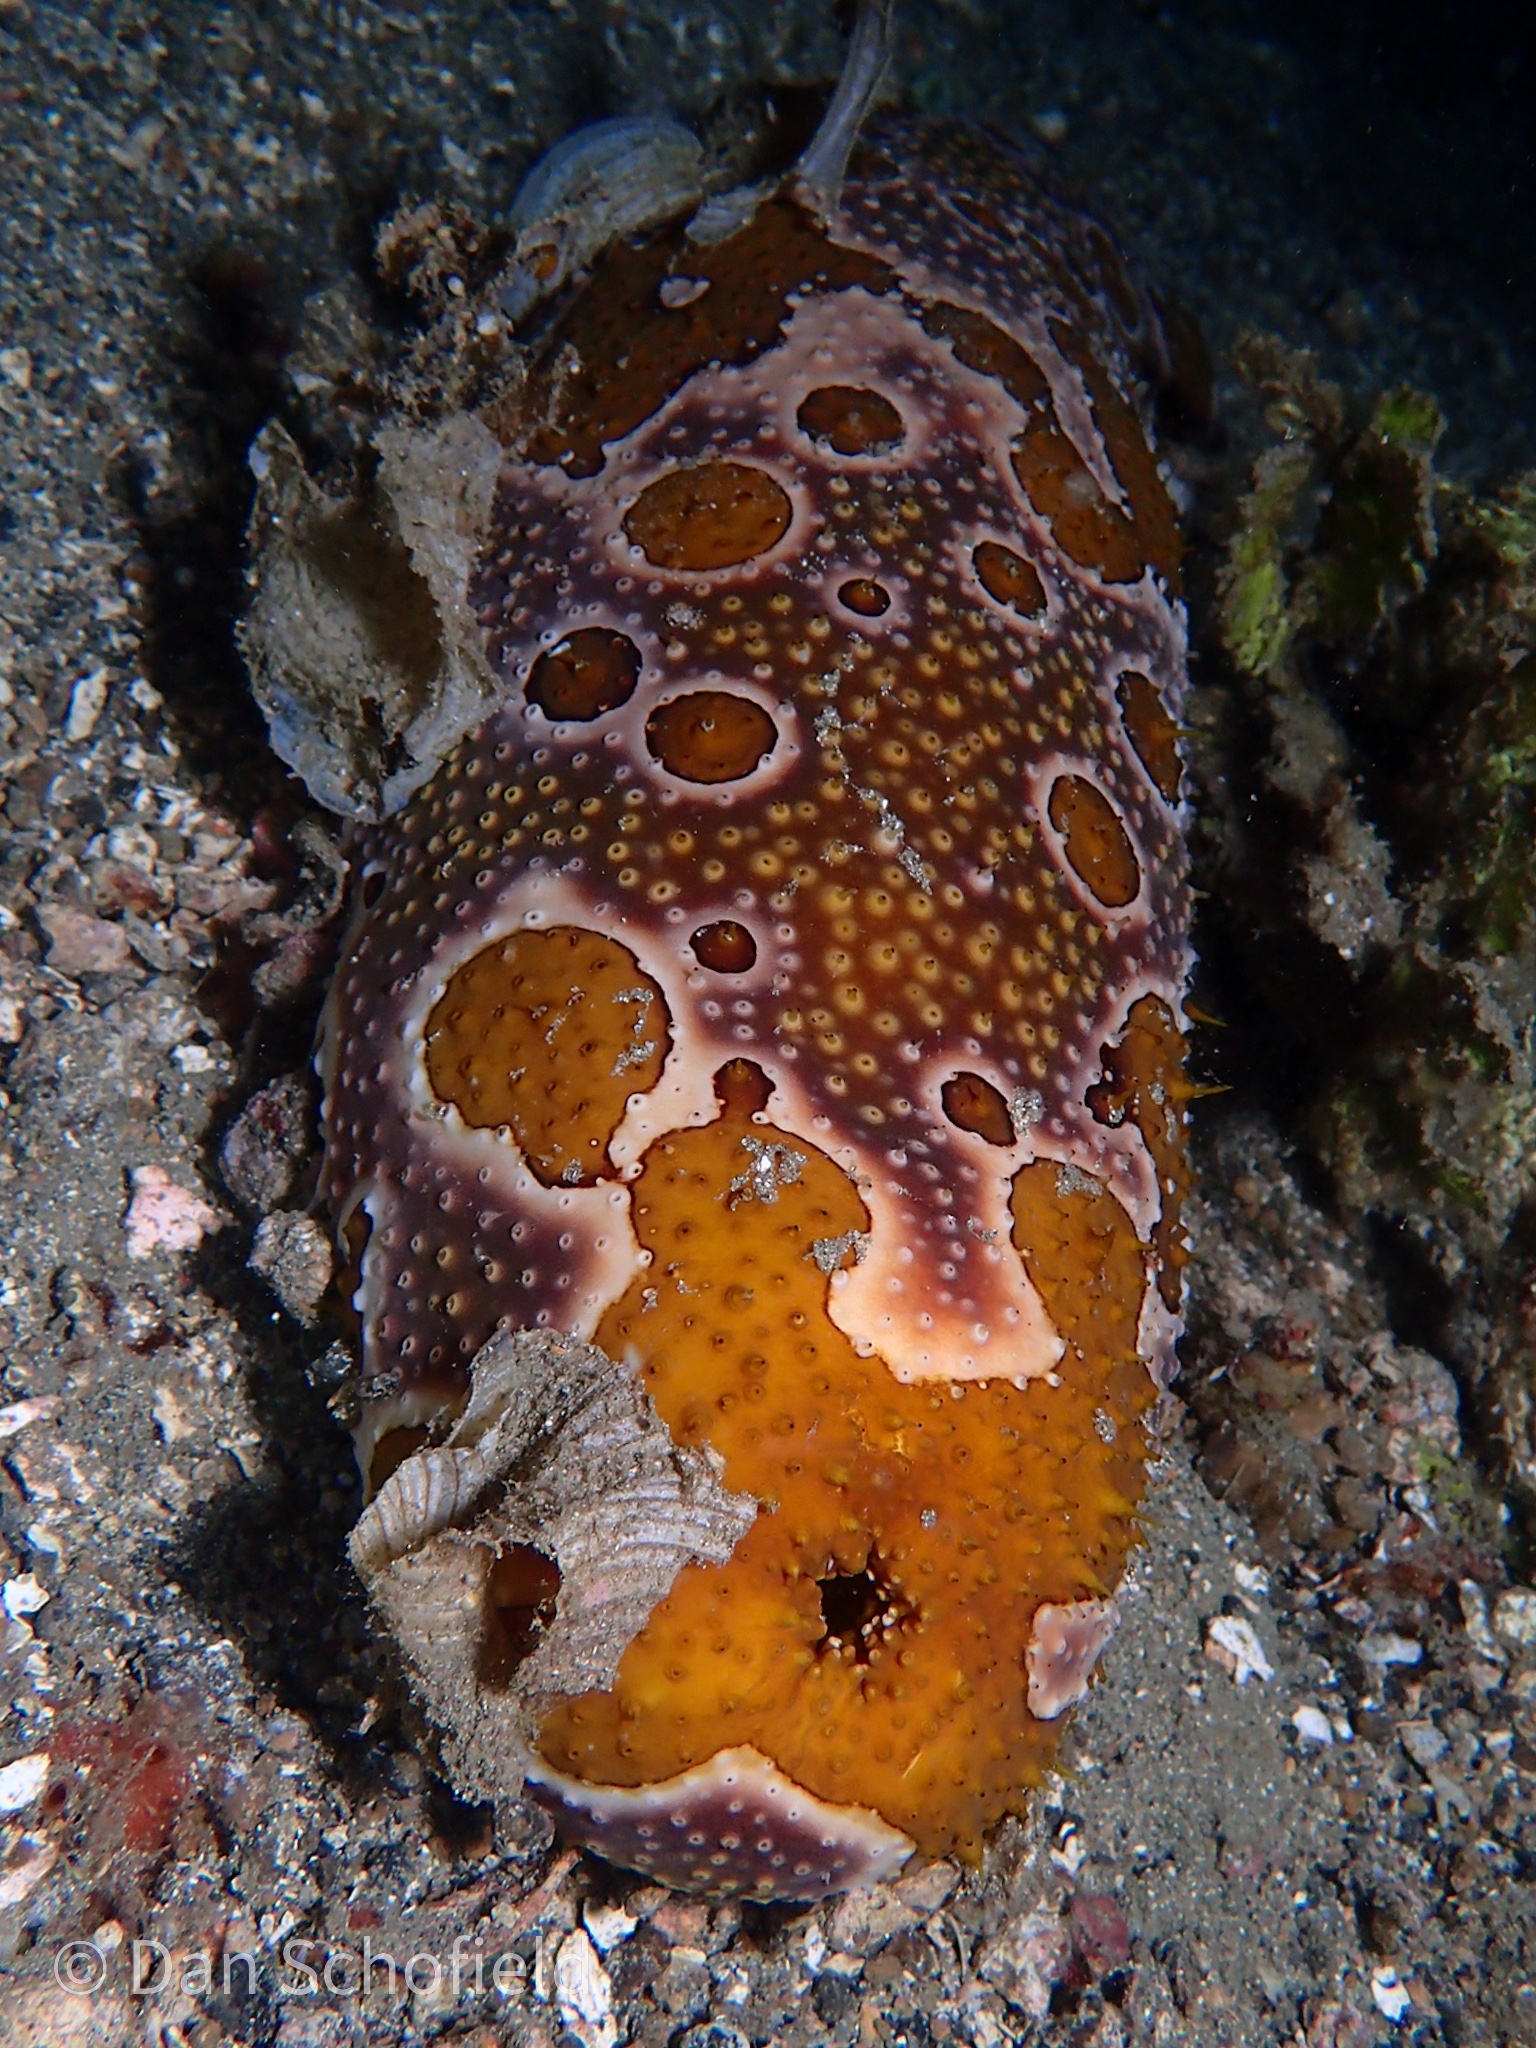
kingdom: Animalia
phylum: Echinodermata
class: Holothuroidea
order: Holothuriida
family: Holothuriidae
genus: Bohadschia
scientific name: Bohadschia ocellata
